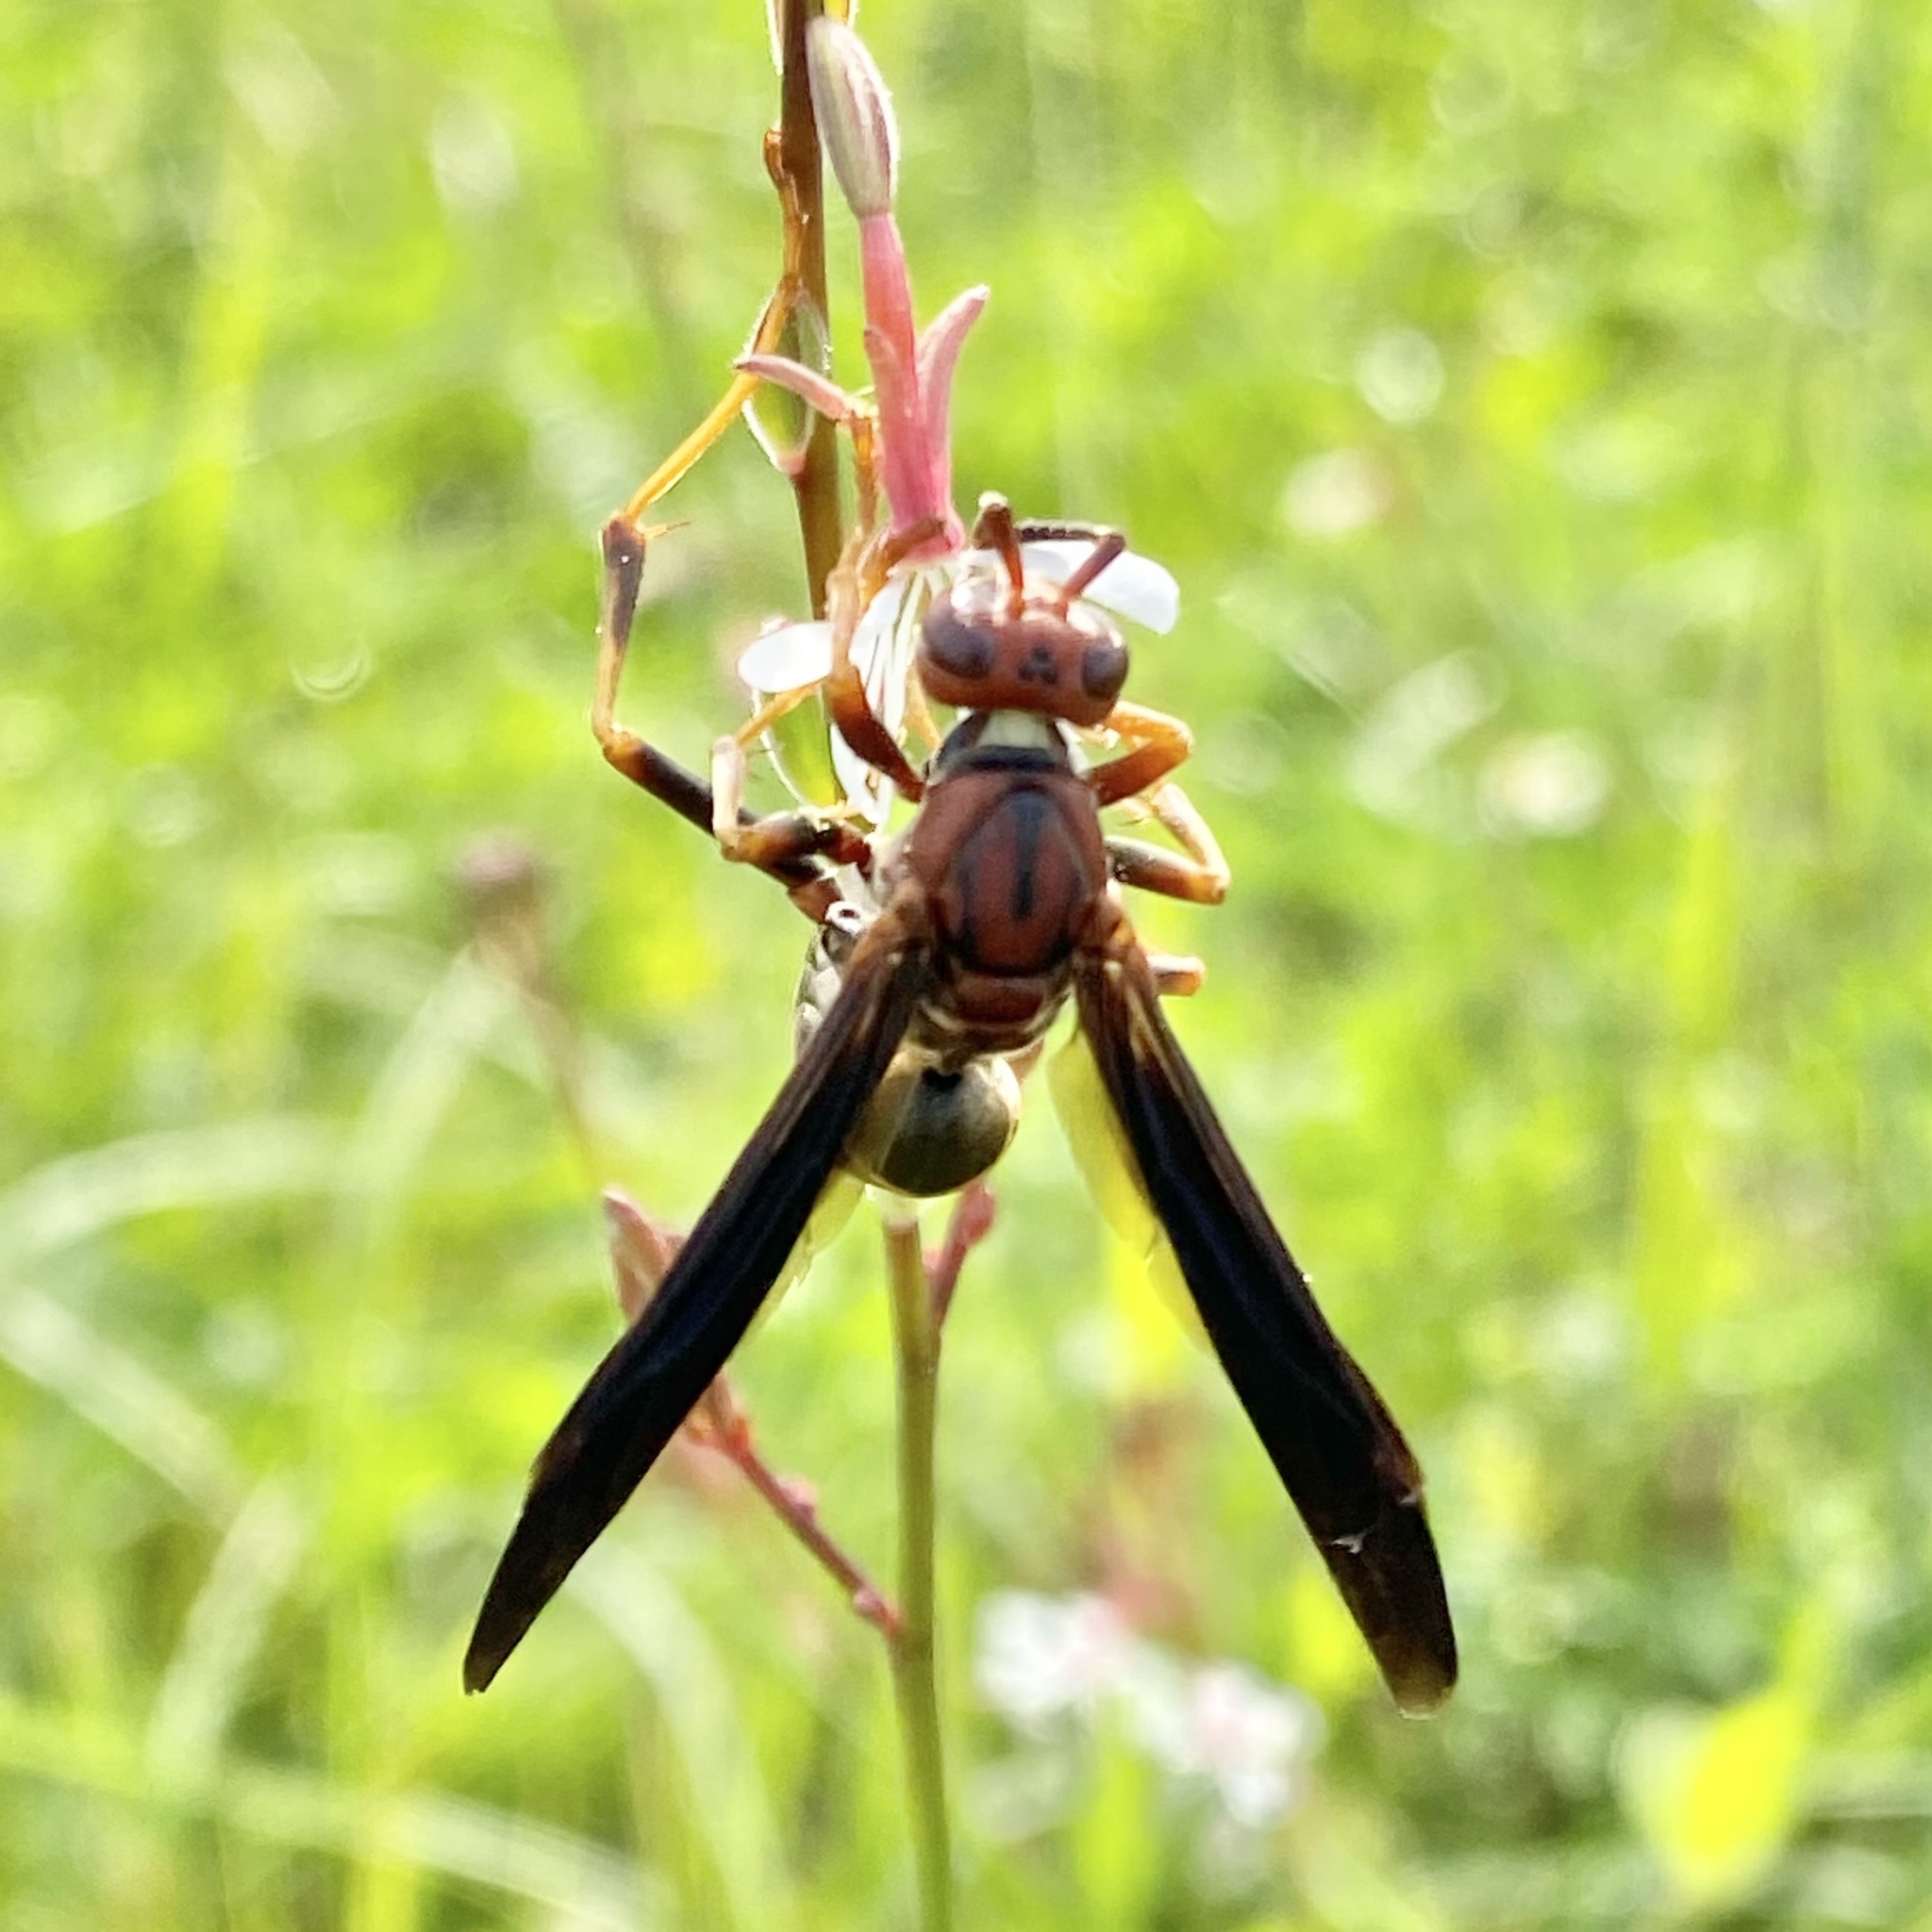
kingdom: Animalia
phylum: Arthropoda
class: Insecta
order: Hymenoptera
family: Eumenidae
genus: Polistes
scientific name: Polistes metricus
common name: Metric paper wasp
